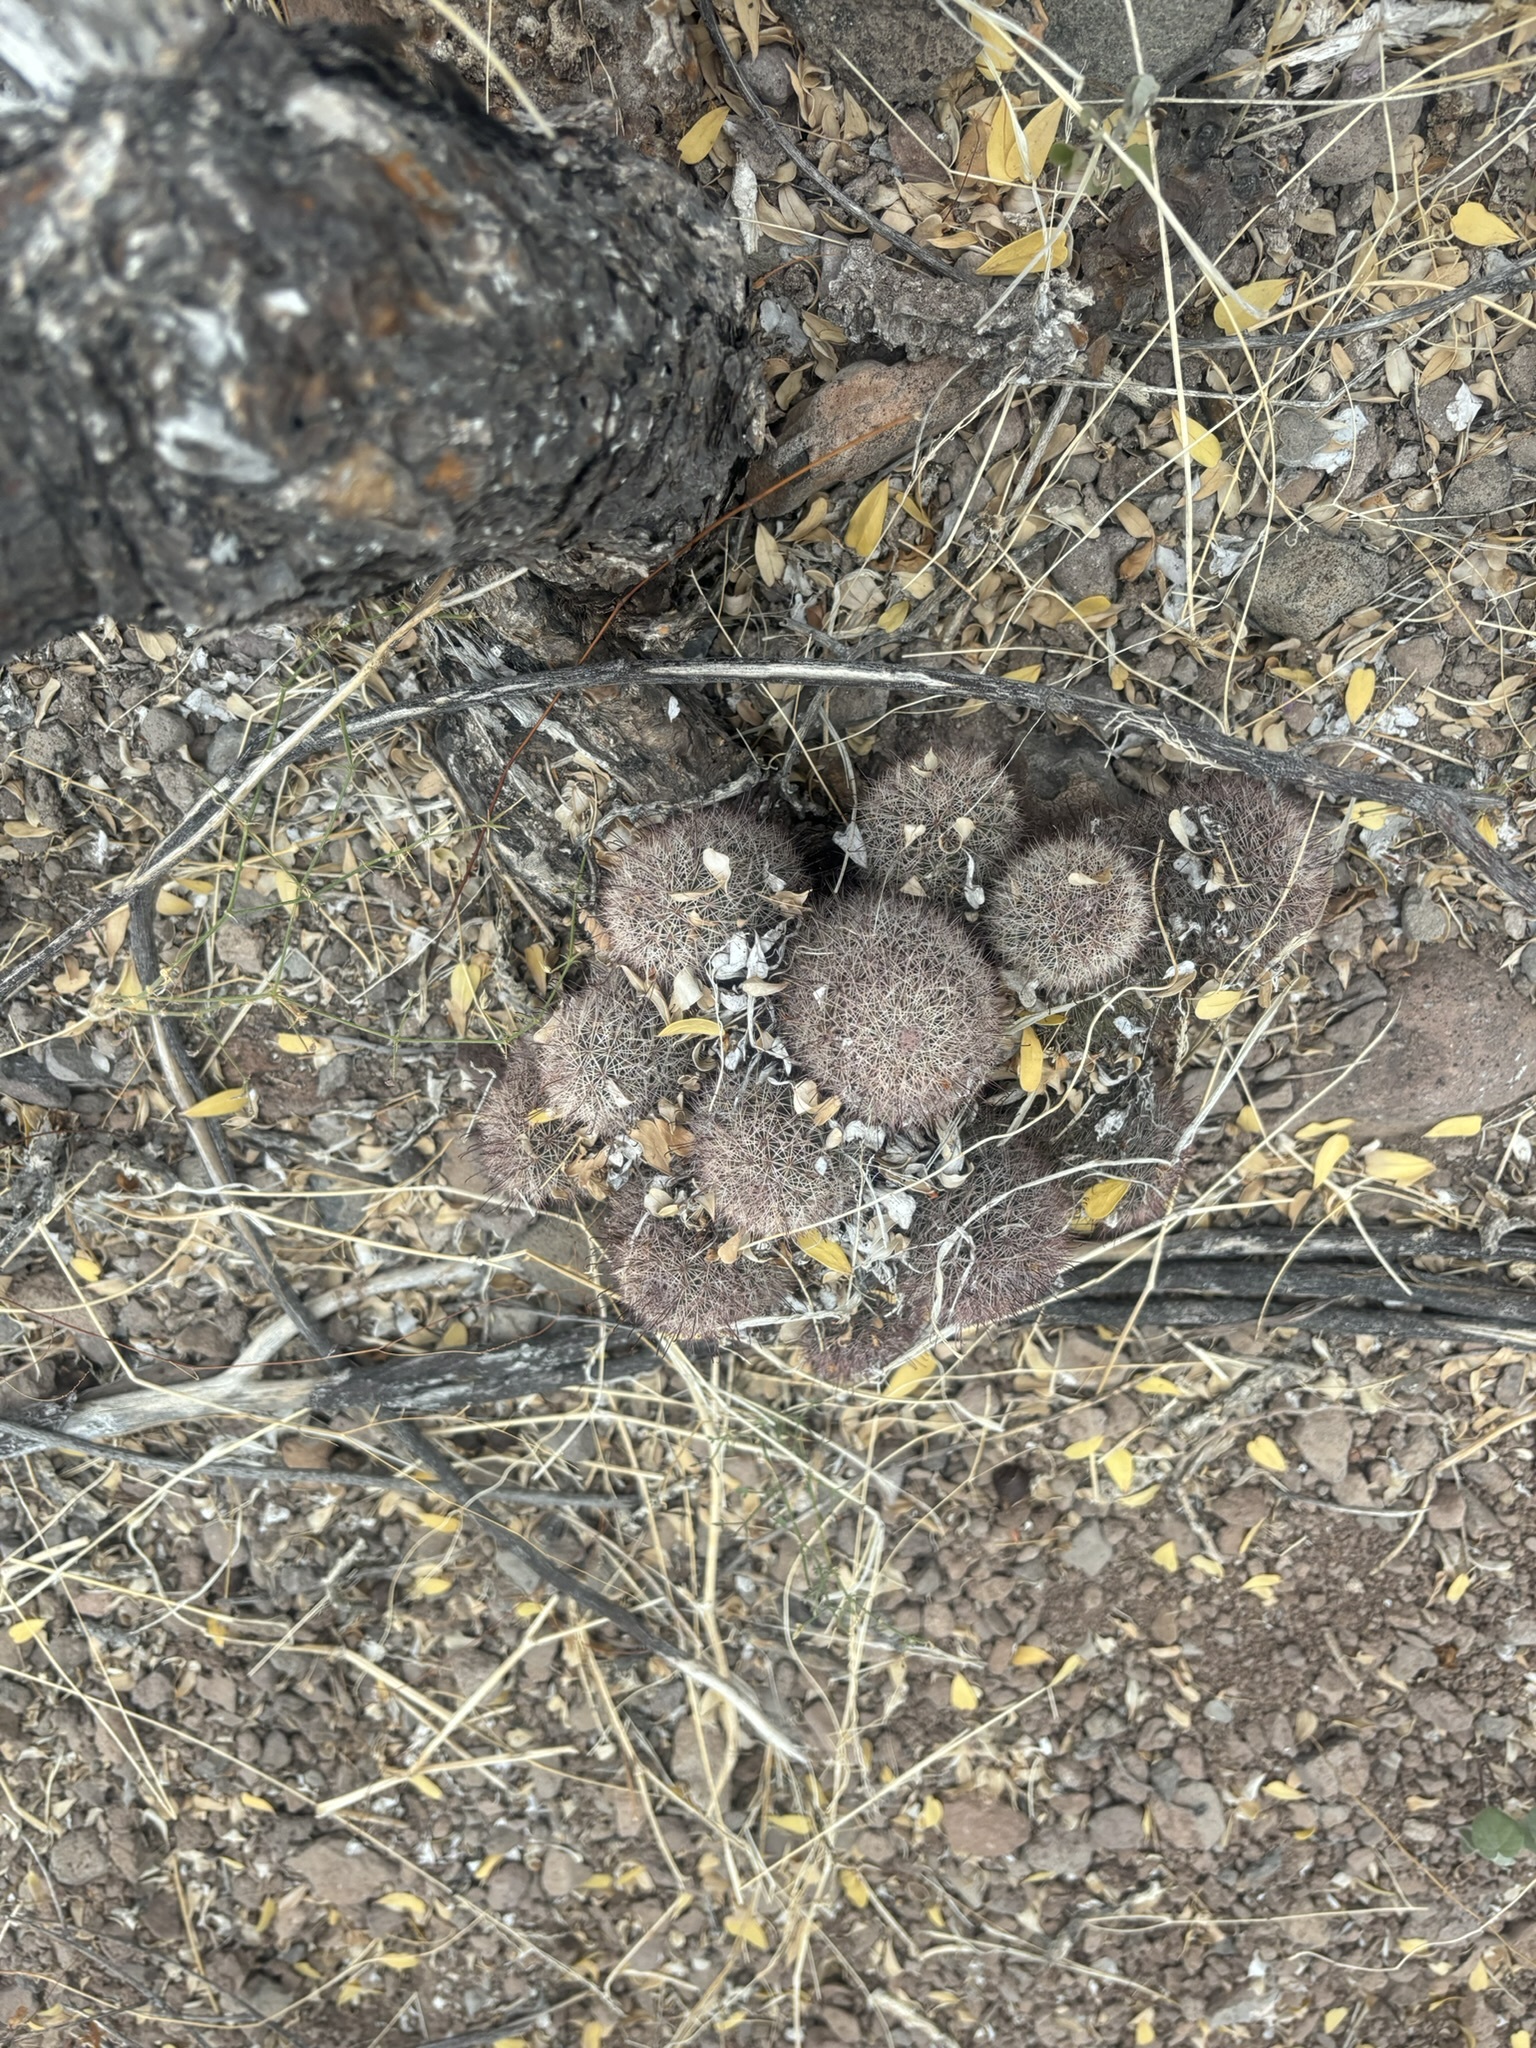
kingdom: Plantae
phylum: Tracheophyta
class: Magnoliopsida
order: Caryophyllales
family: Cactaceae
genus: Cochemiea
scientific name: Cochemiea dioica
